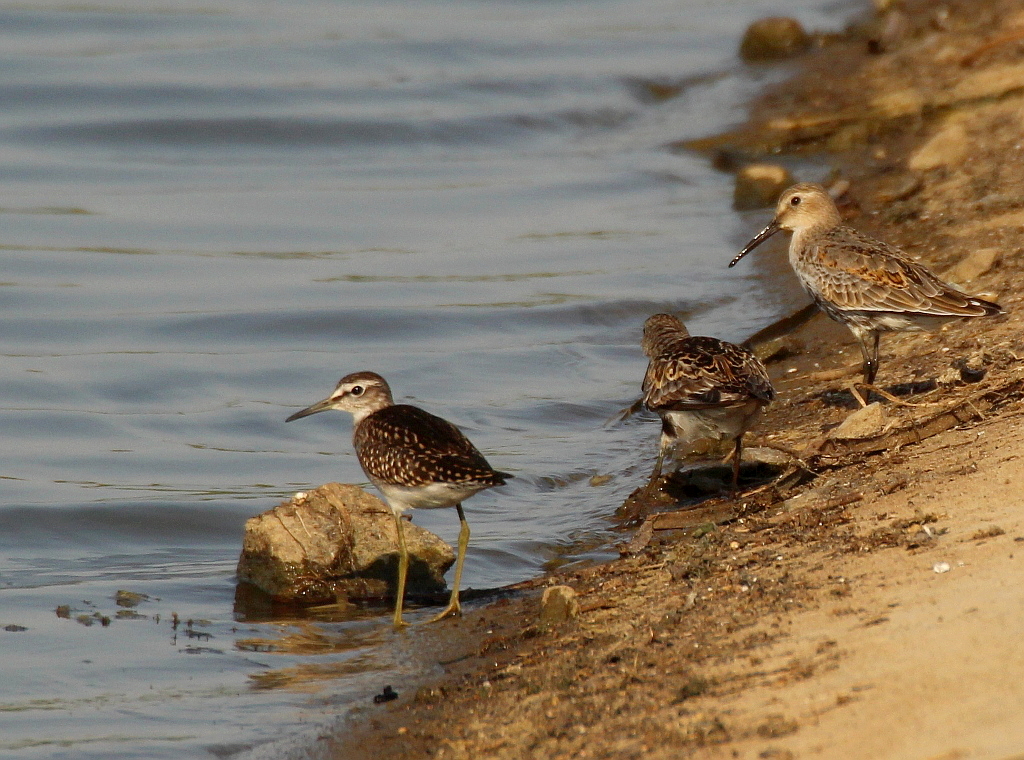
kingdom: Animalia
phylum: Chordata
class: Aves
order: Charadriiformes
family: Scolopacidae
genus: Tringa
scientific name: Tringa glareola
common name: Wood sandpiper
